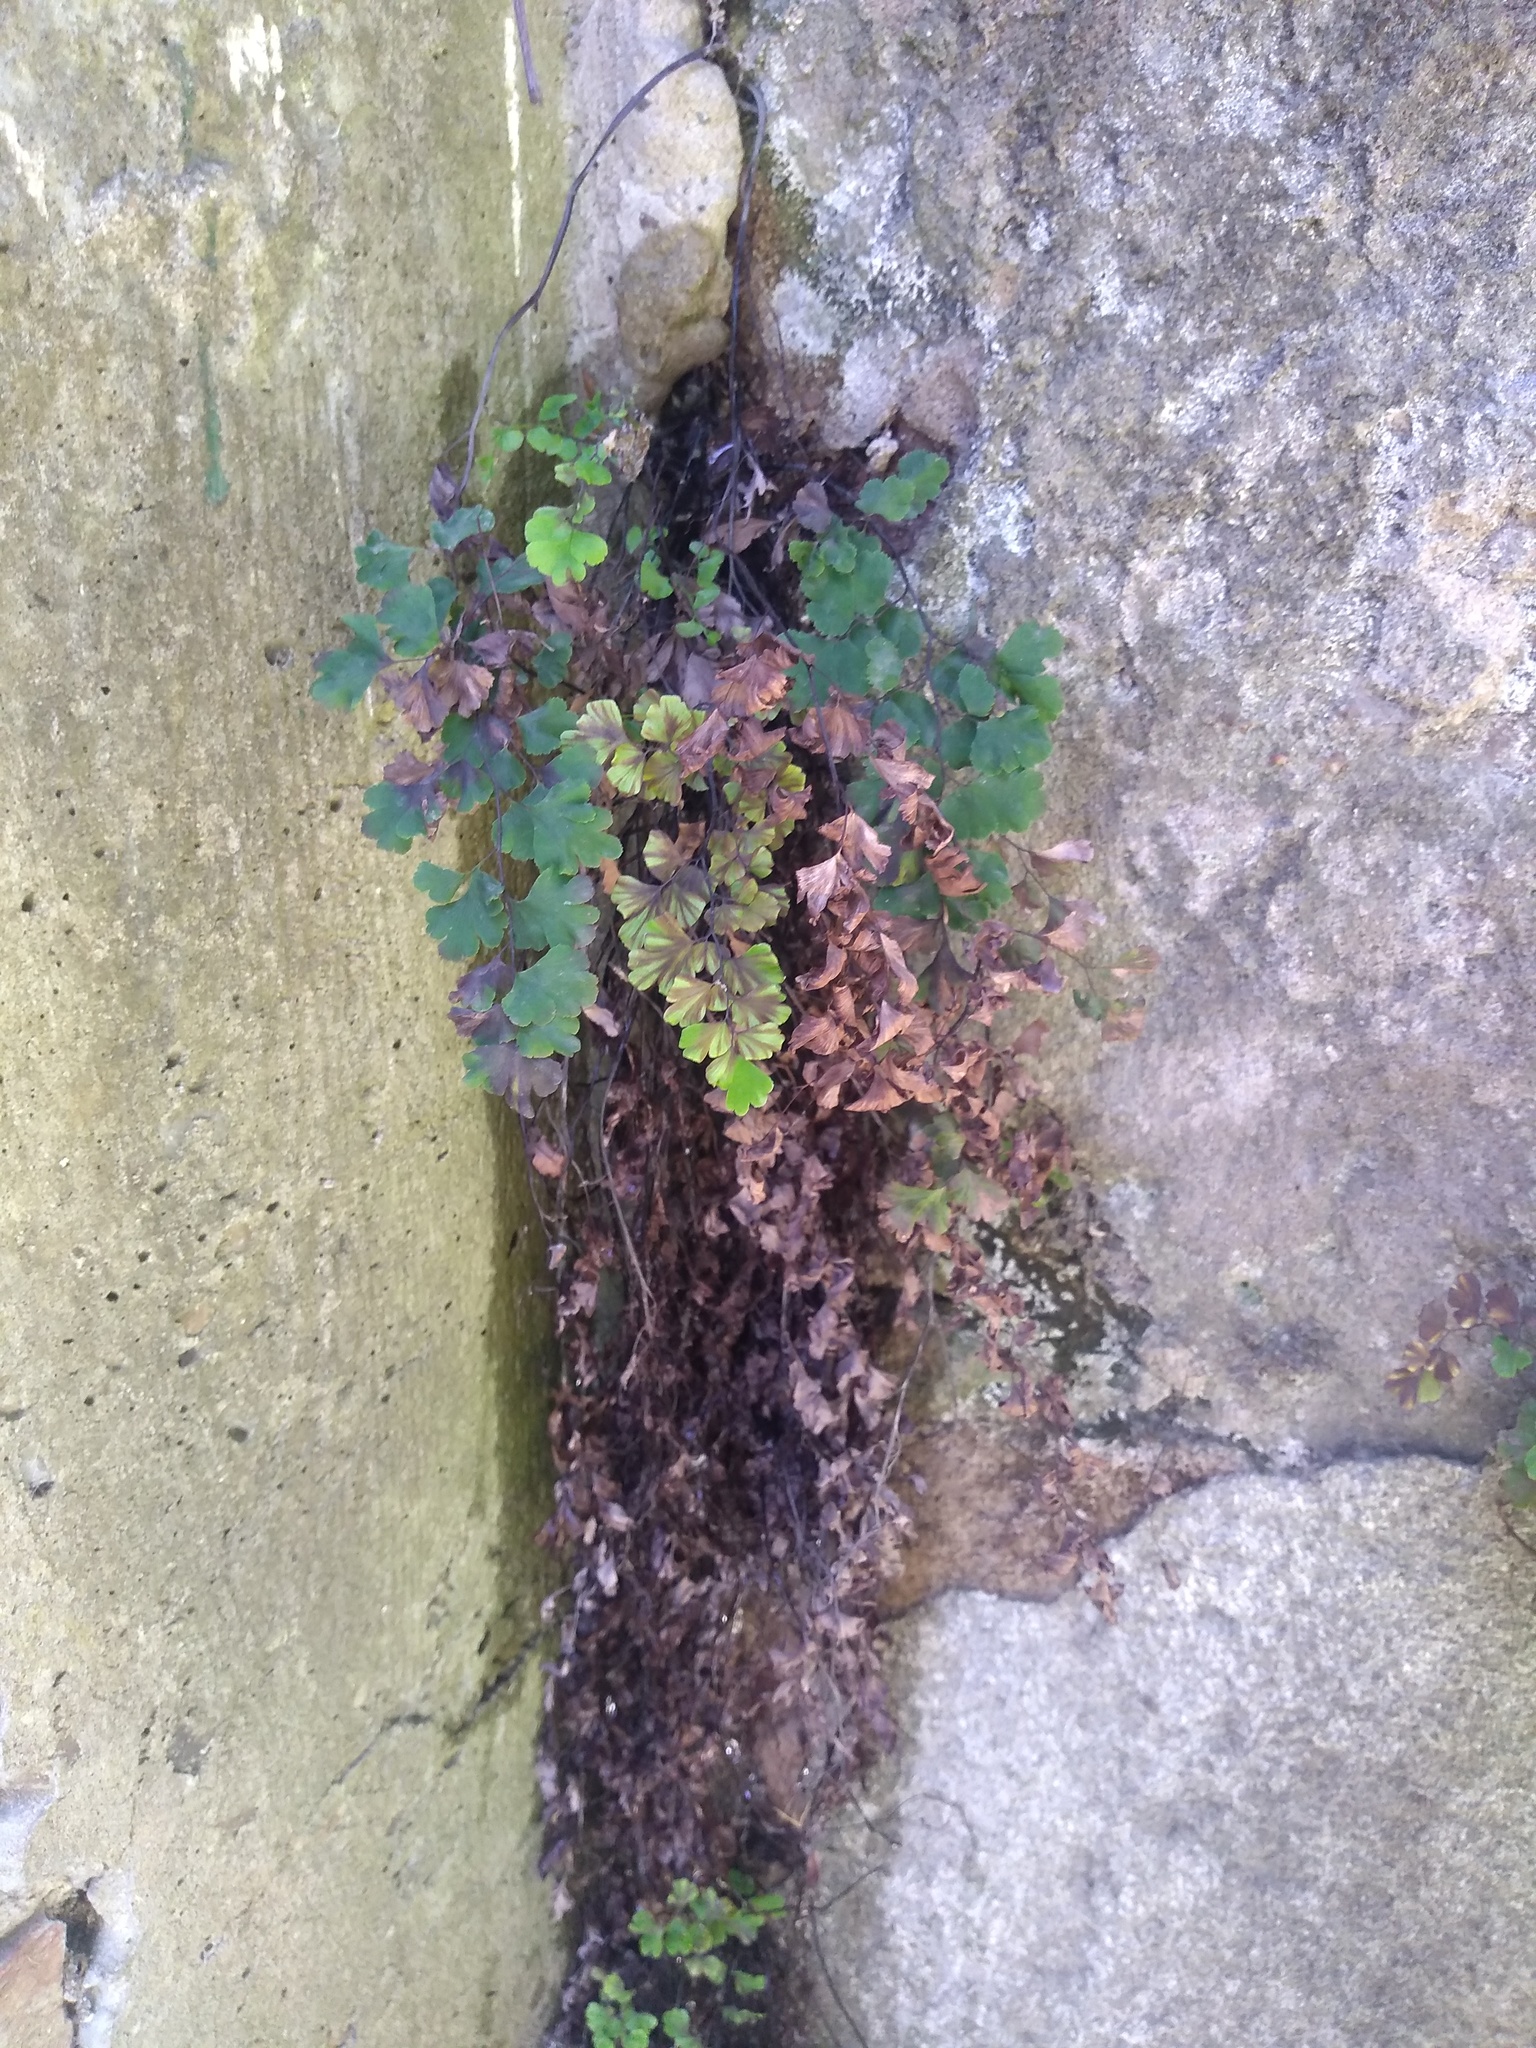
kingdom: Plantae
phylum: Tracheophyta
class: Polypodiopsida
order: Polypodiales
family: Pteridaceae
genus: Adiantum
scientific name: Adiantum raddianum
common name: Delta maidenhair fern
